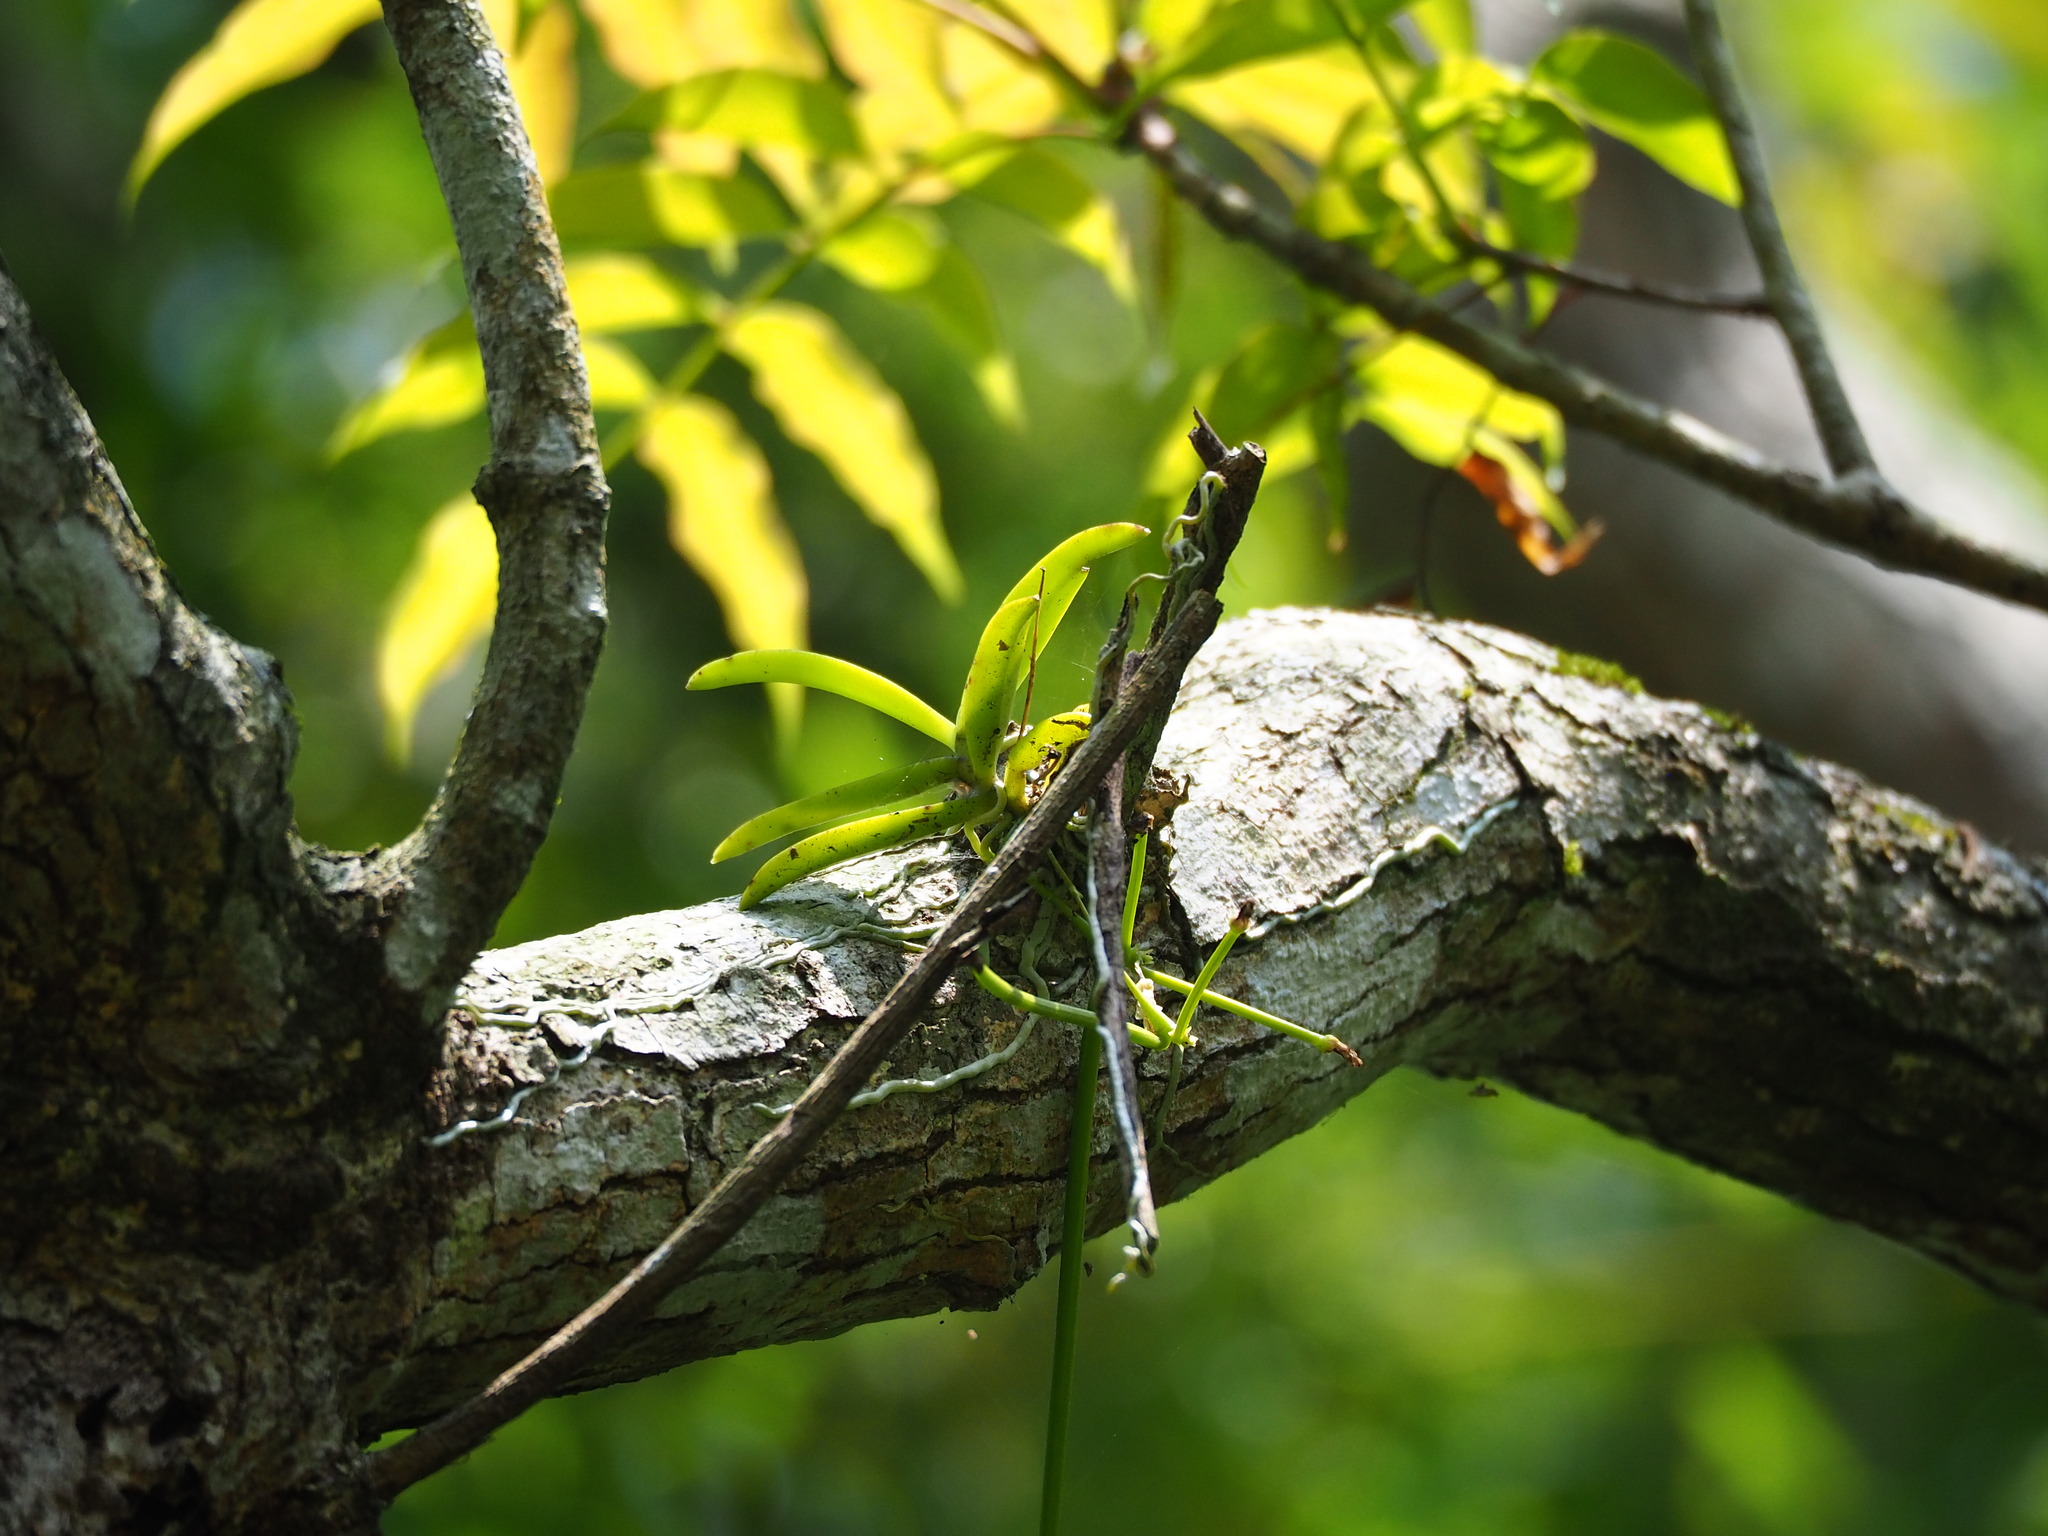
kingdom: Plantae
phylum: Tracheophyta
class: Liliopsida
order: Asparagales
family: Orchidaceae
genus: Thrixspermum
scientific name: Thrixspermum formosanum
